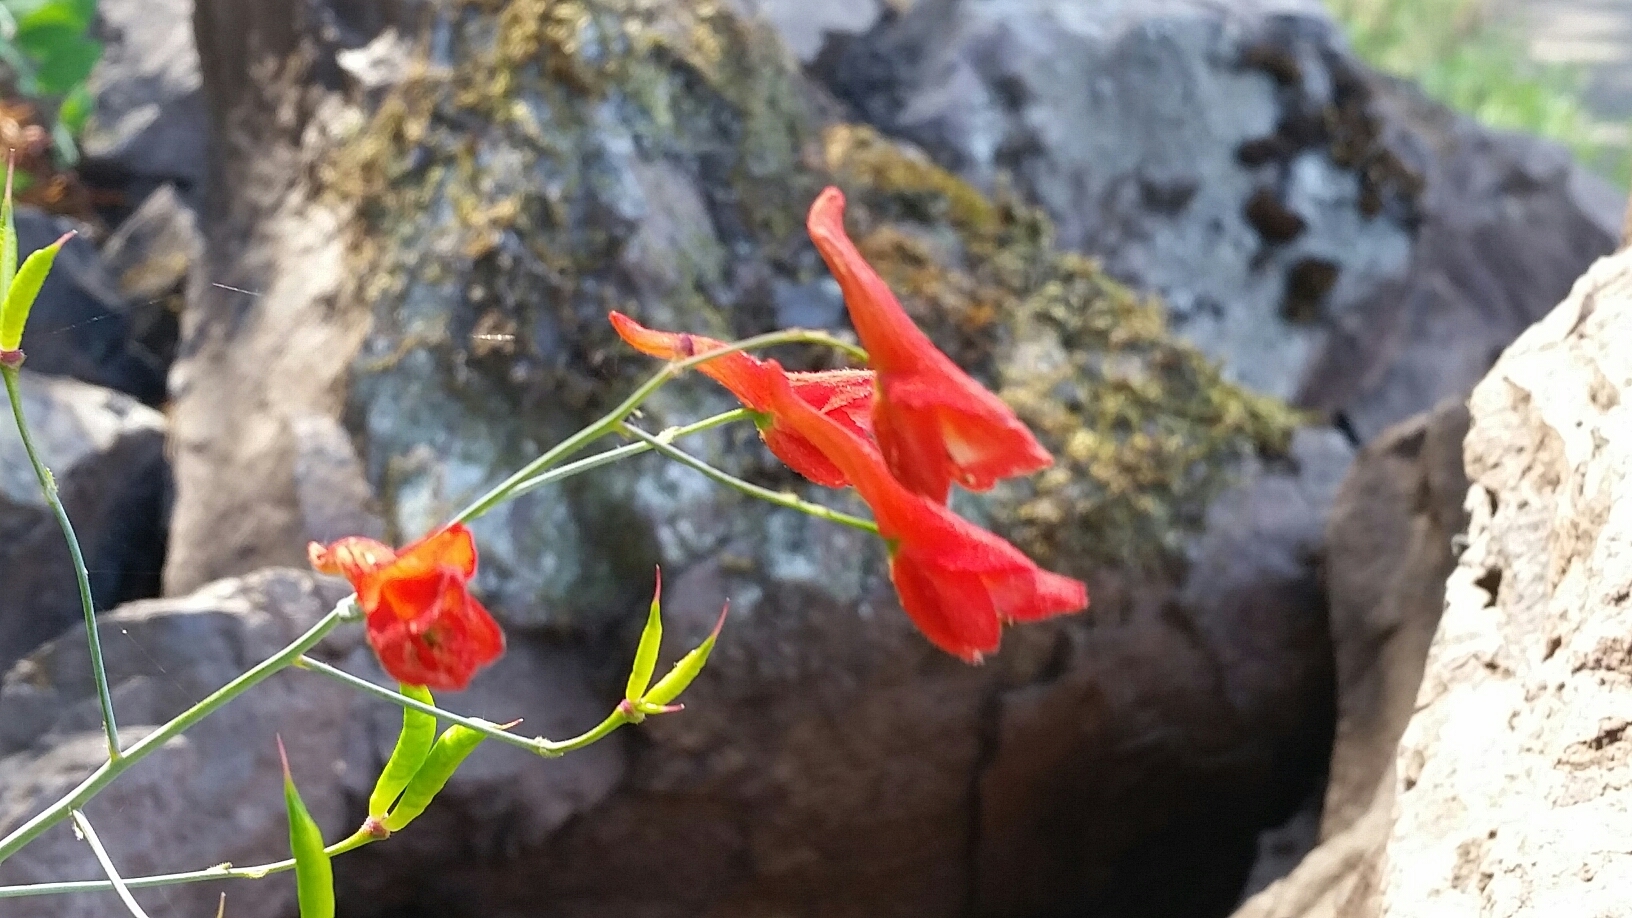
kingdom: Plantae
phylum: Tracheophyta
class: Magnoliopsida
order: Ranunculales
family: Ranunculaceae
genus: Delphinium
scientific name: Delphinium nudicaule
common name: Red larkspur
